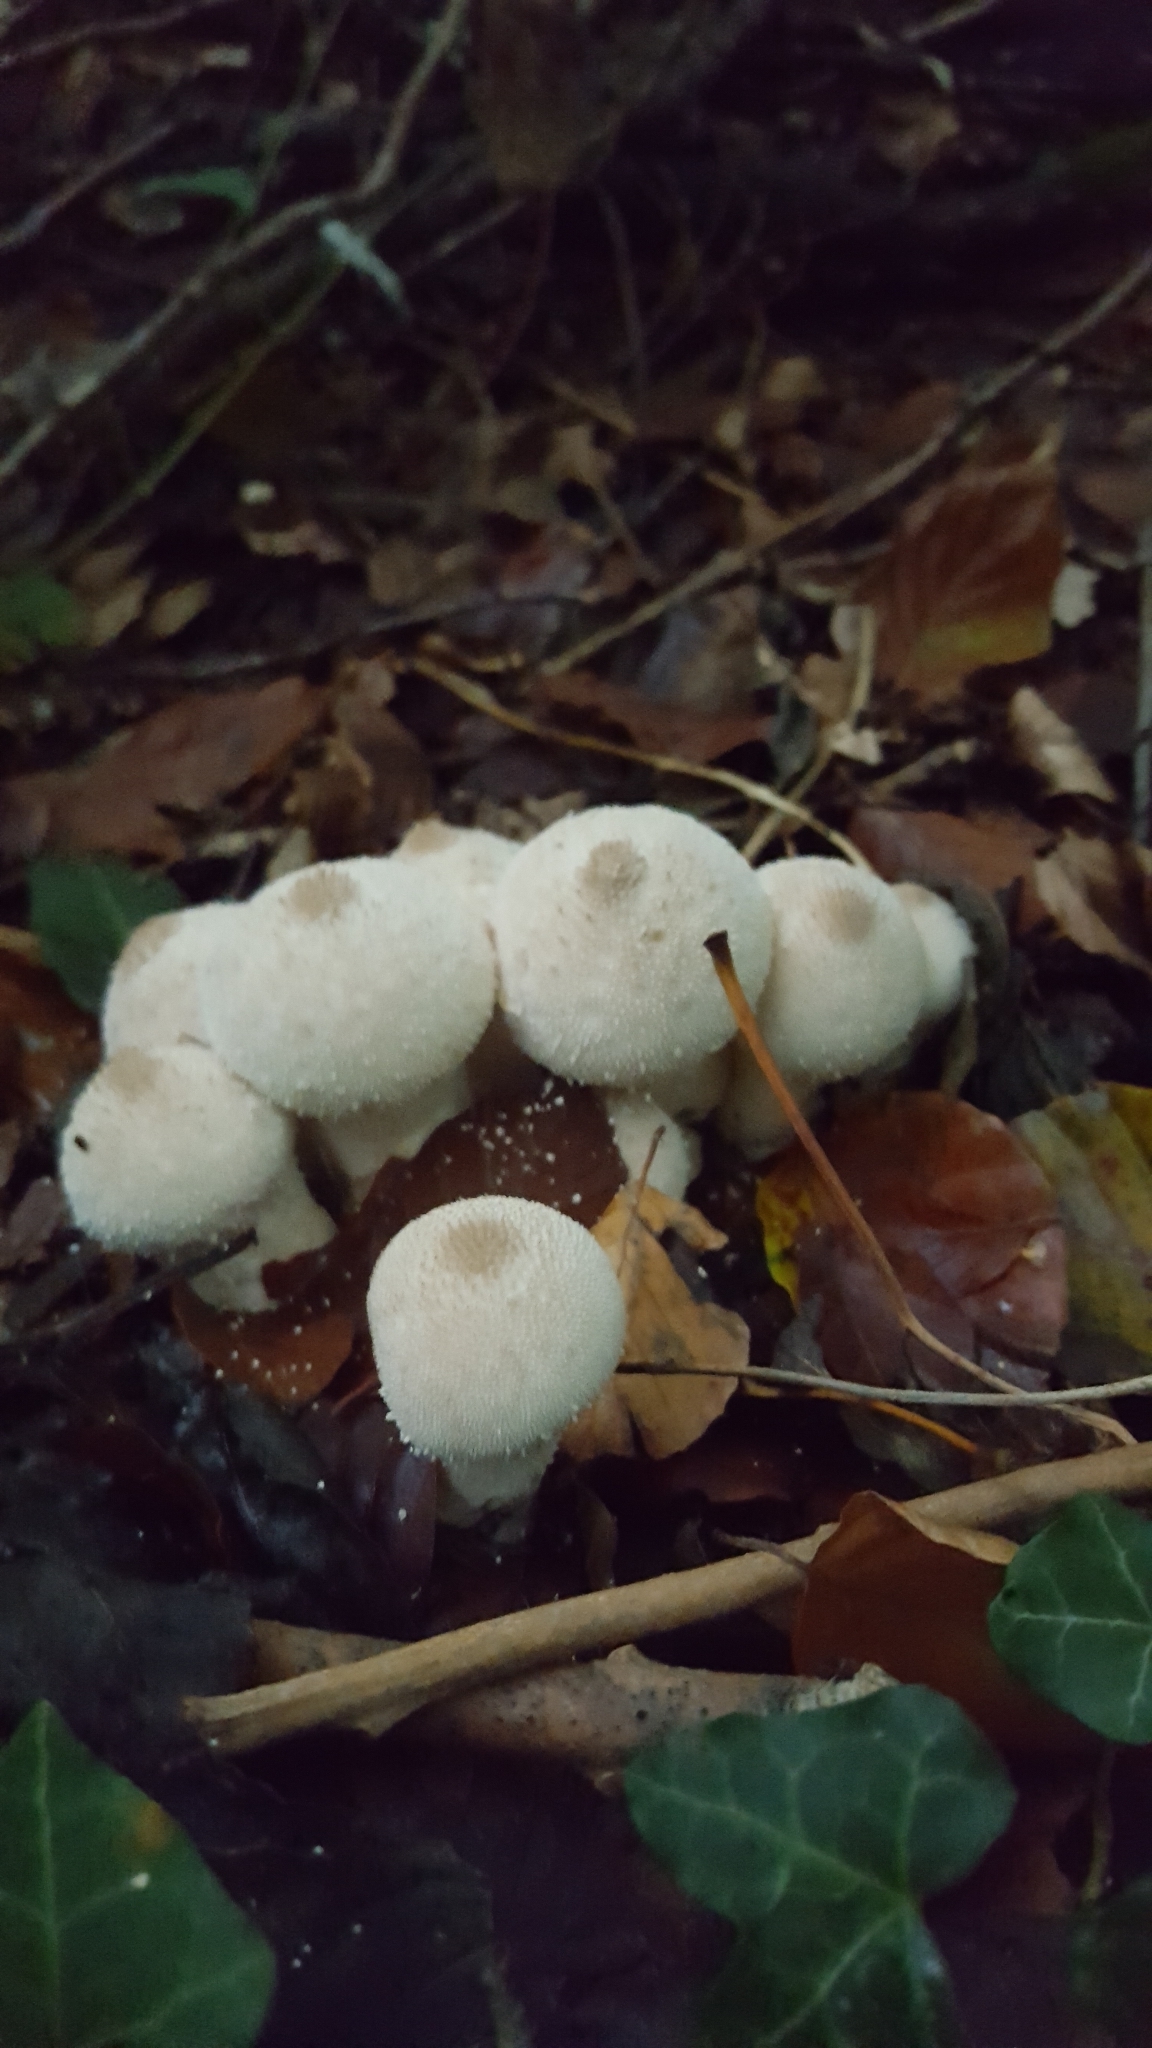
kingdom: Fungi
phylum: Basidiomycota
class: Agaricomycetes
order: Agaricales
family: Lycoperdaceae
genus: Lycoperdon
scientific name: Lycoperdon perlatum
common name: Common puffball
